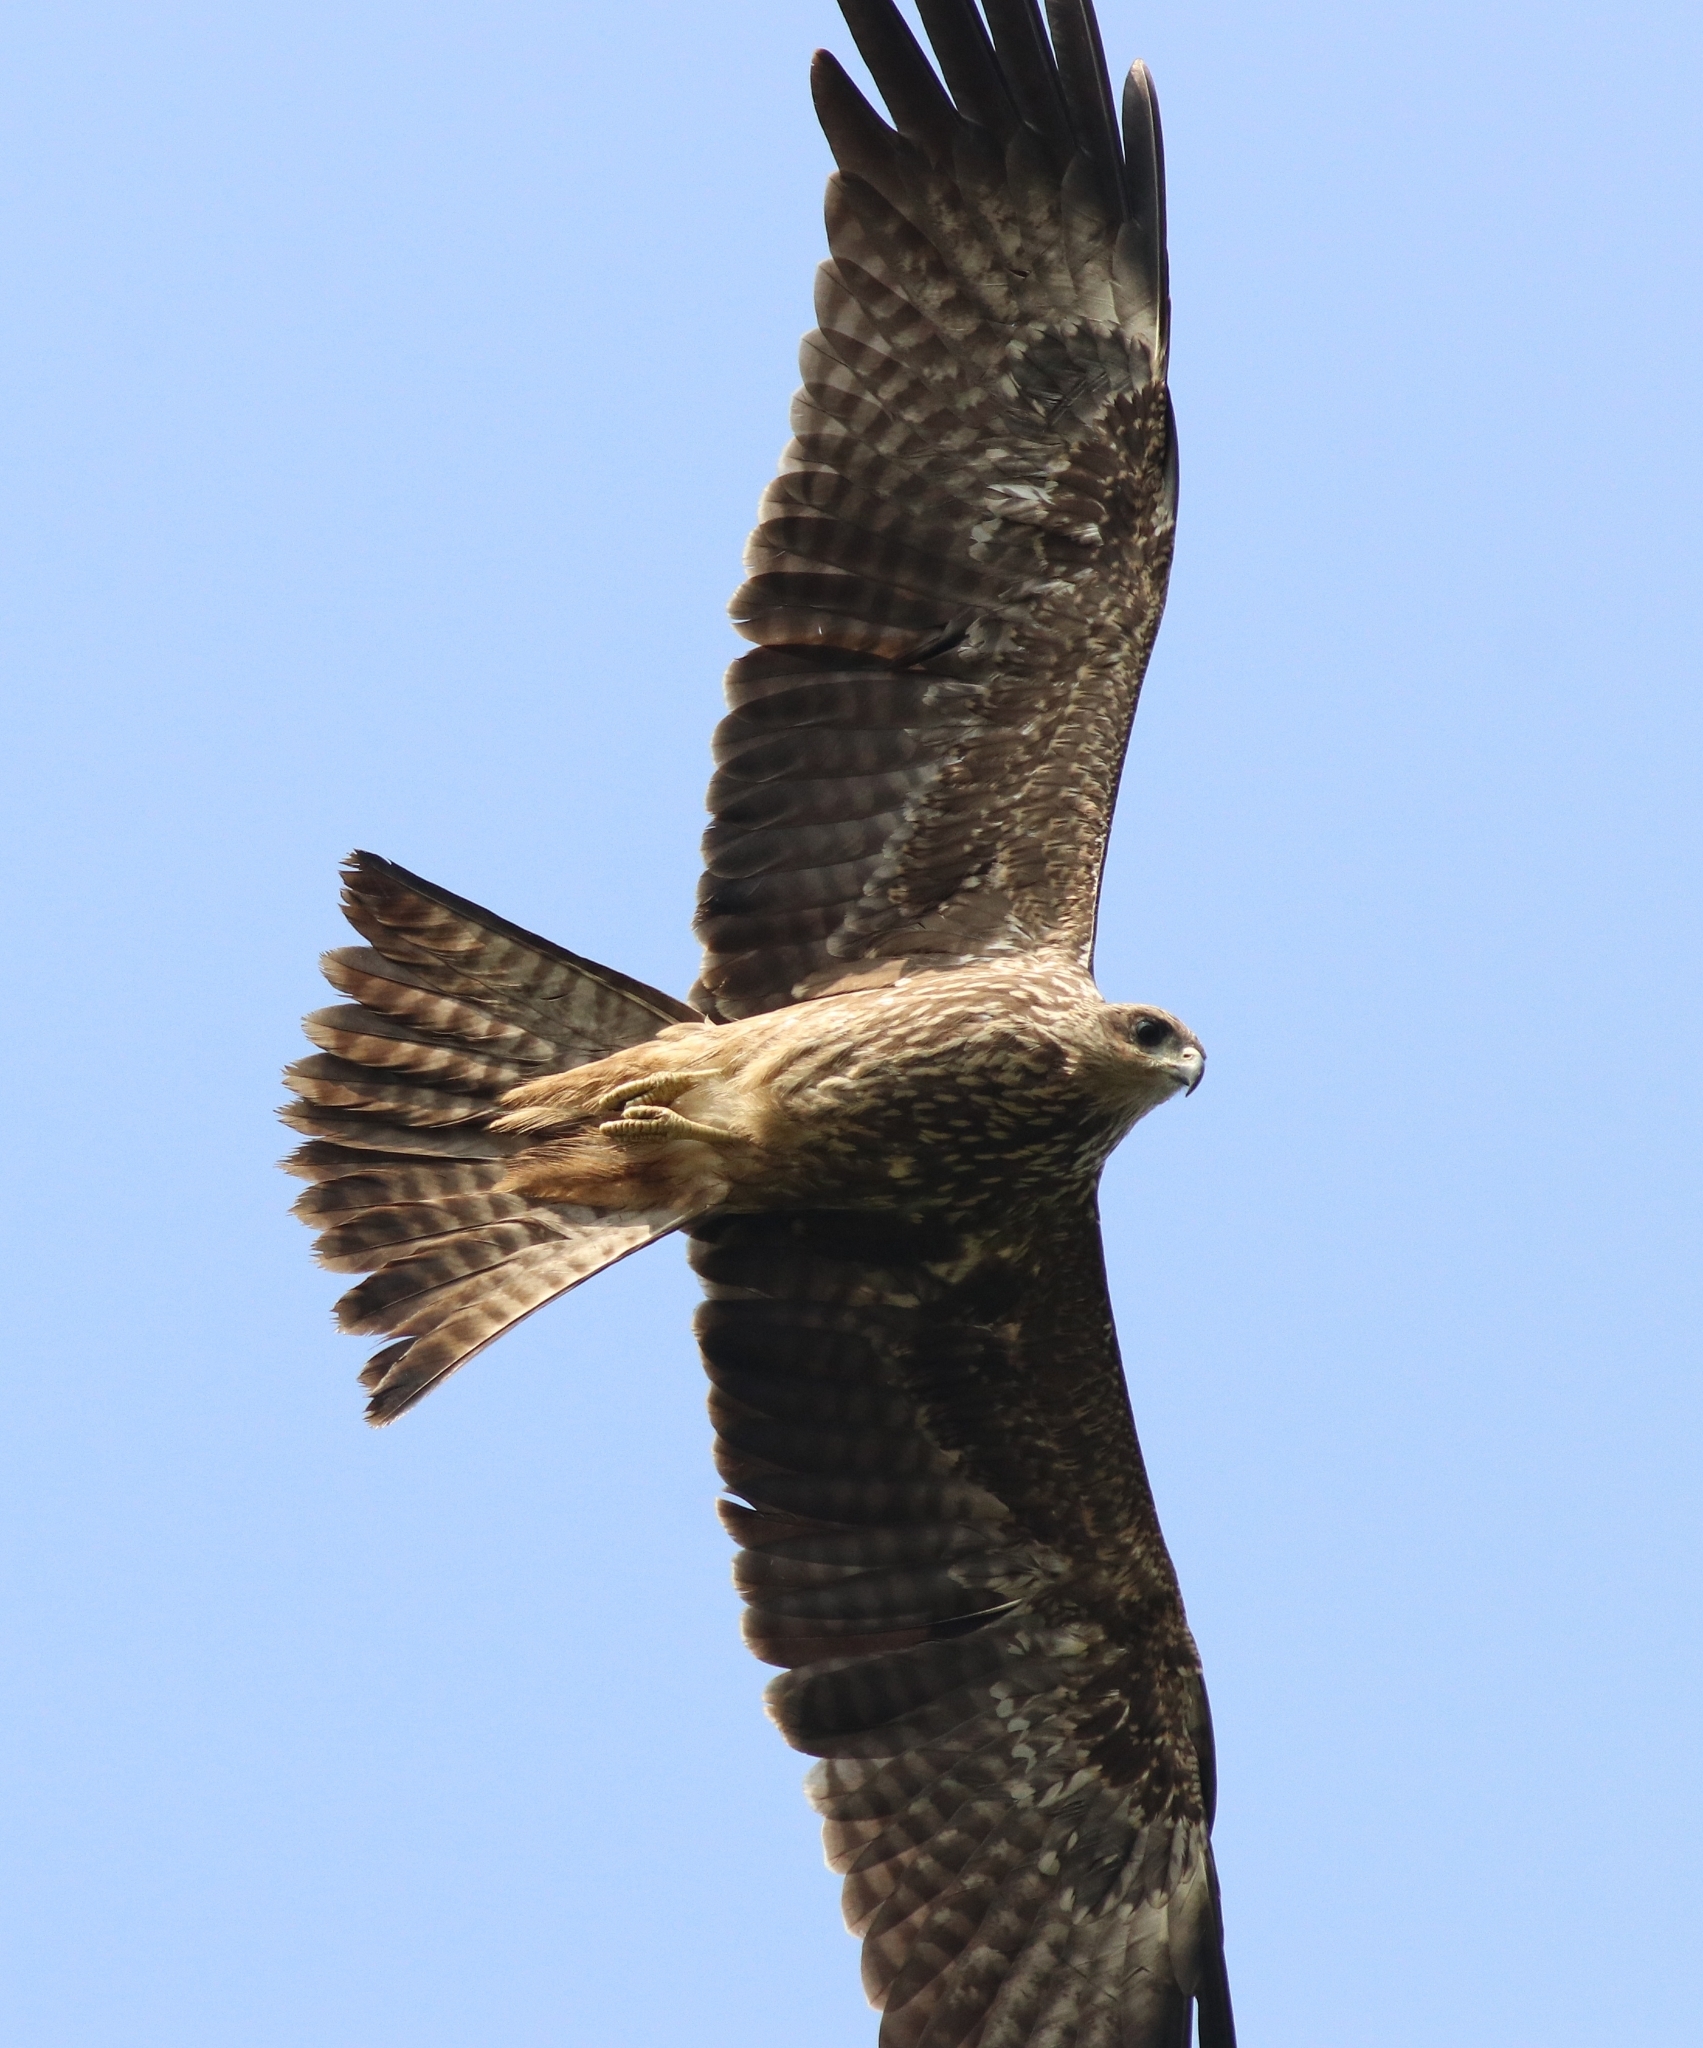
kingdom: Animalia
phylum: Chordata
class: Aves
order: Accipitriformes
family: Accipitridae
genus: Milvus
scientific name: Milvus migrans
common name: Black kite
